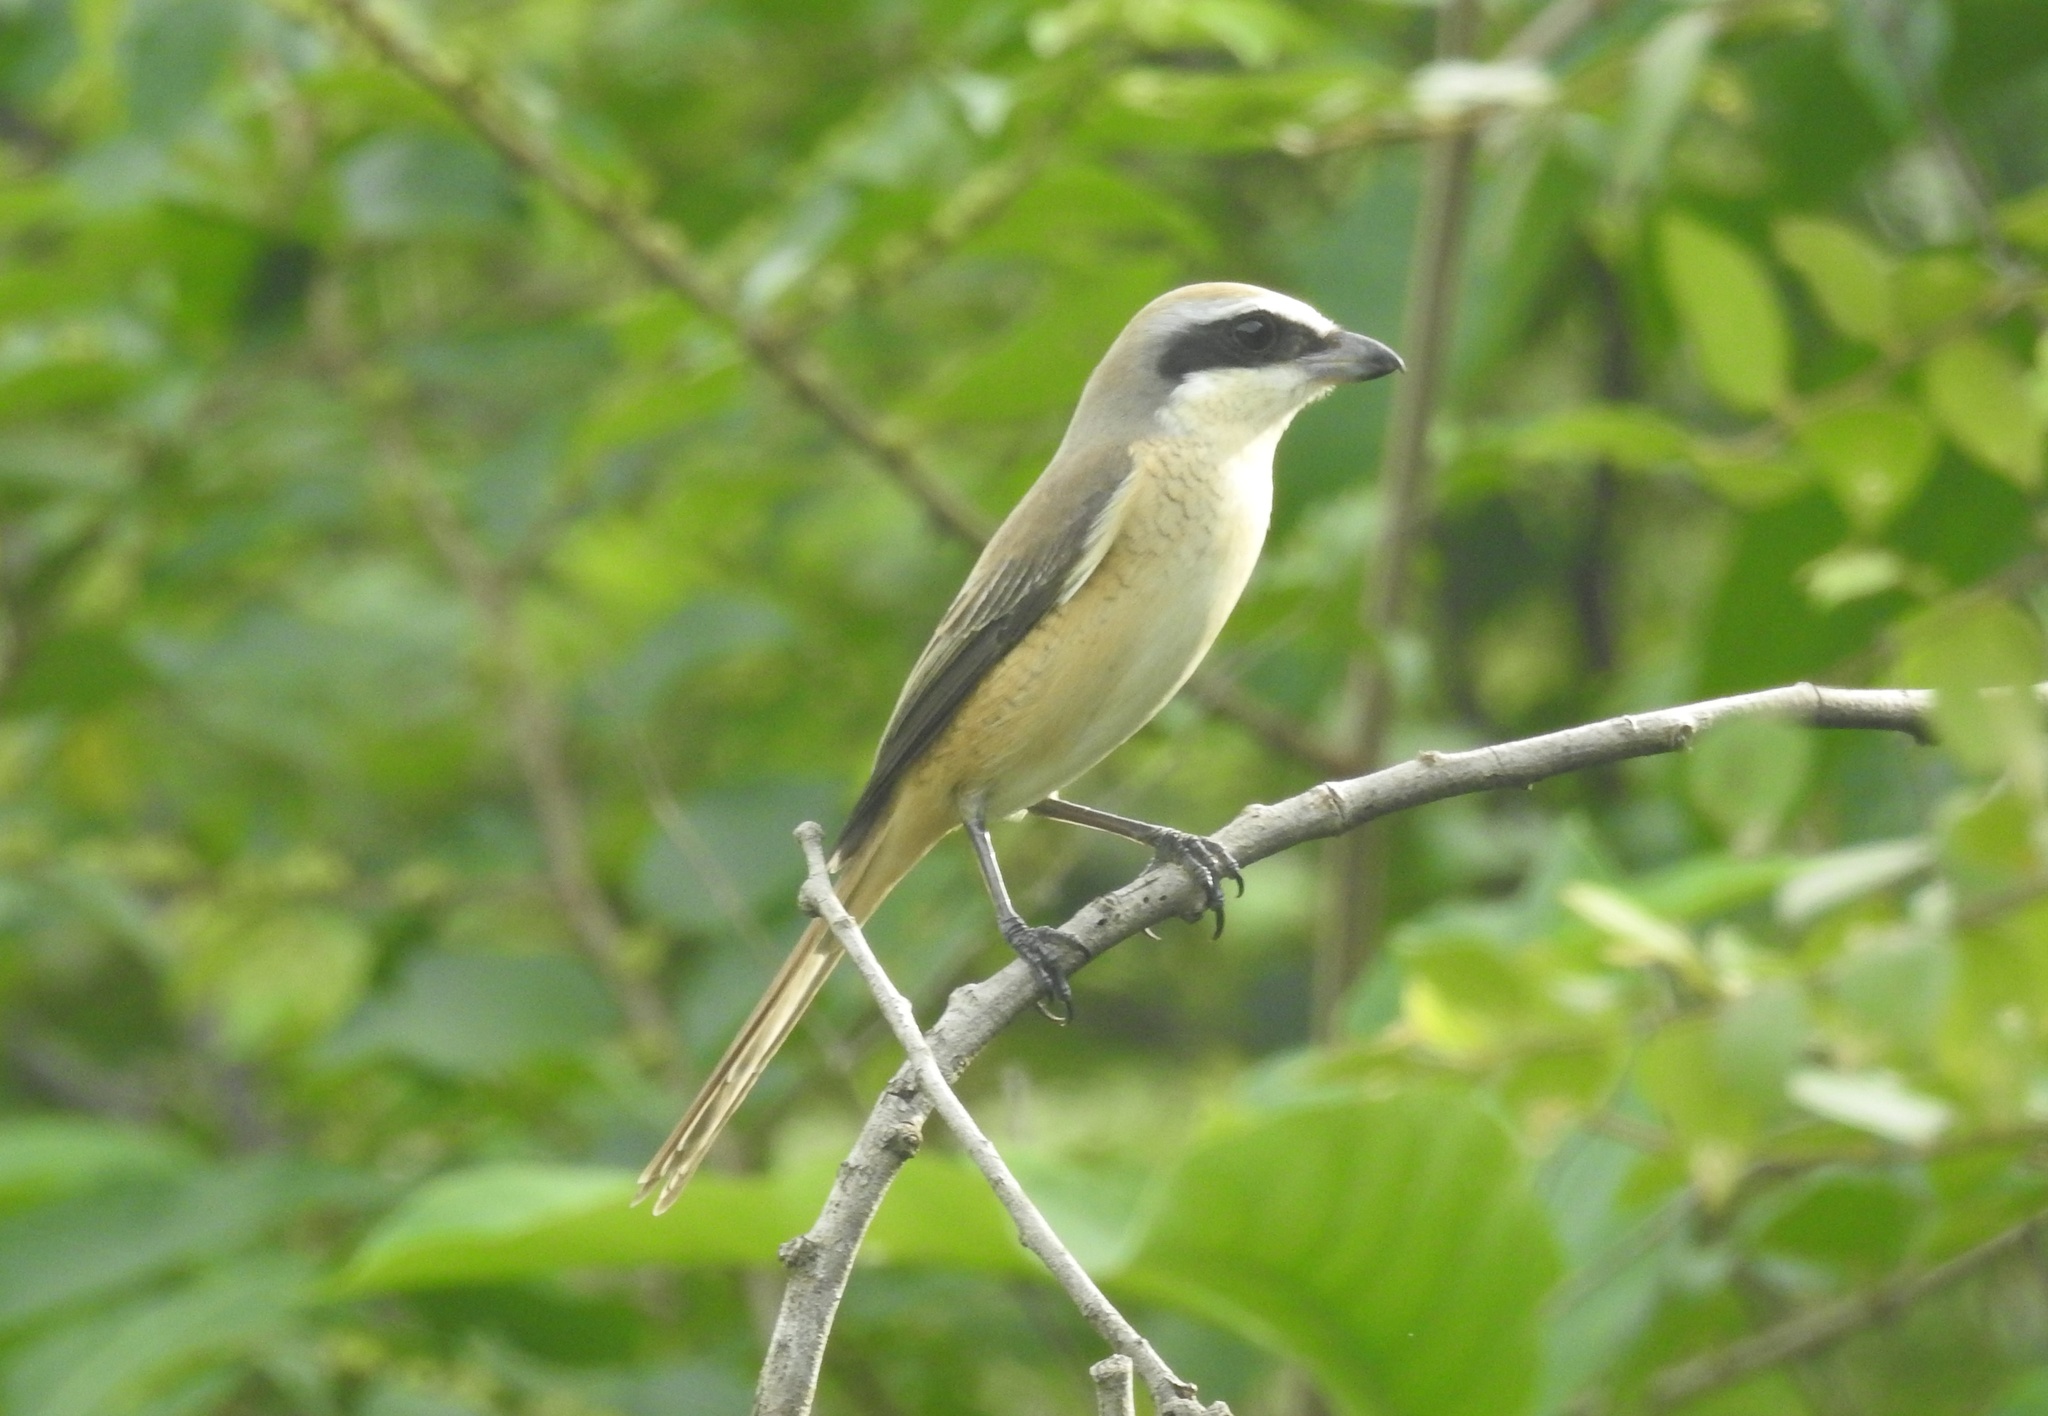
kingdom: Animalia
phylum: Chordata
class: Aves
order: Passeriformes
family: Laniidae
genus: Lanius
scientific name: Lanius cristatus
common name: Brown shrike
